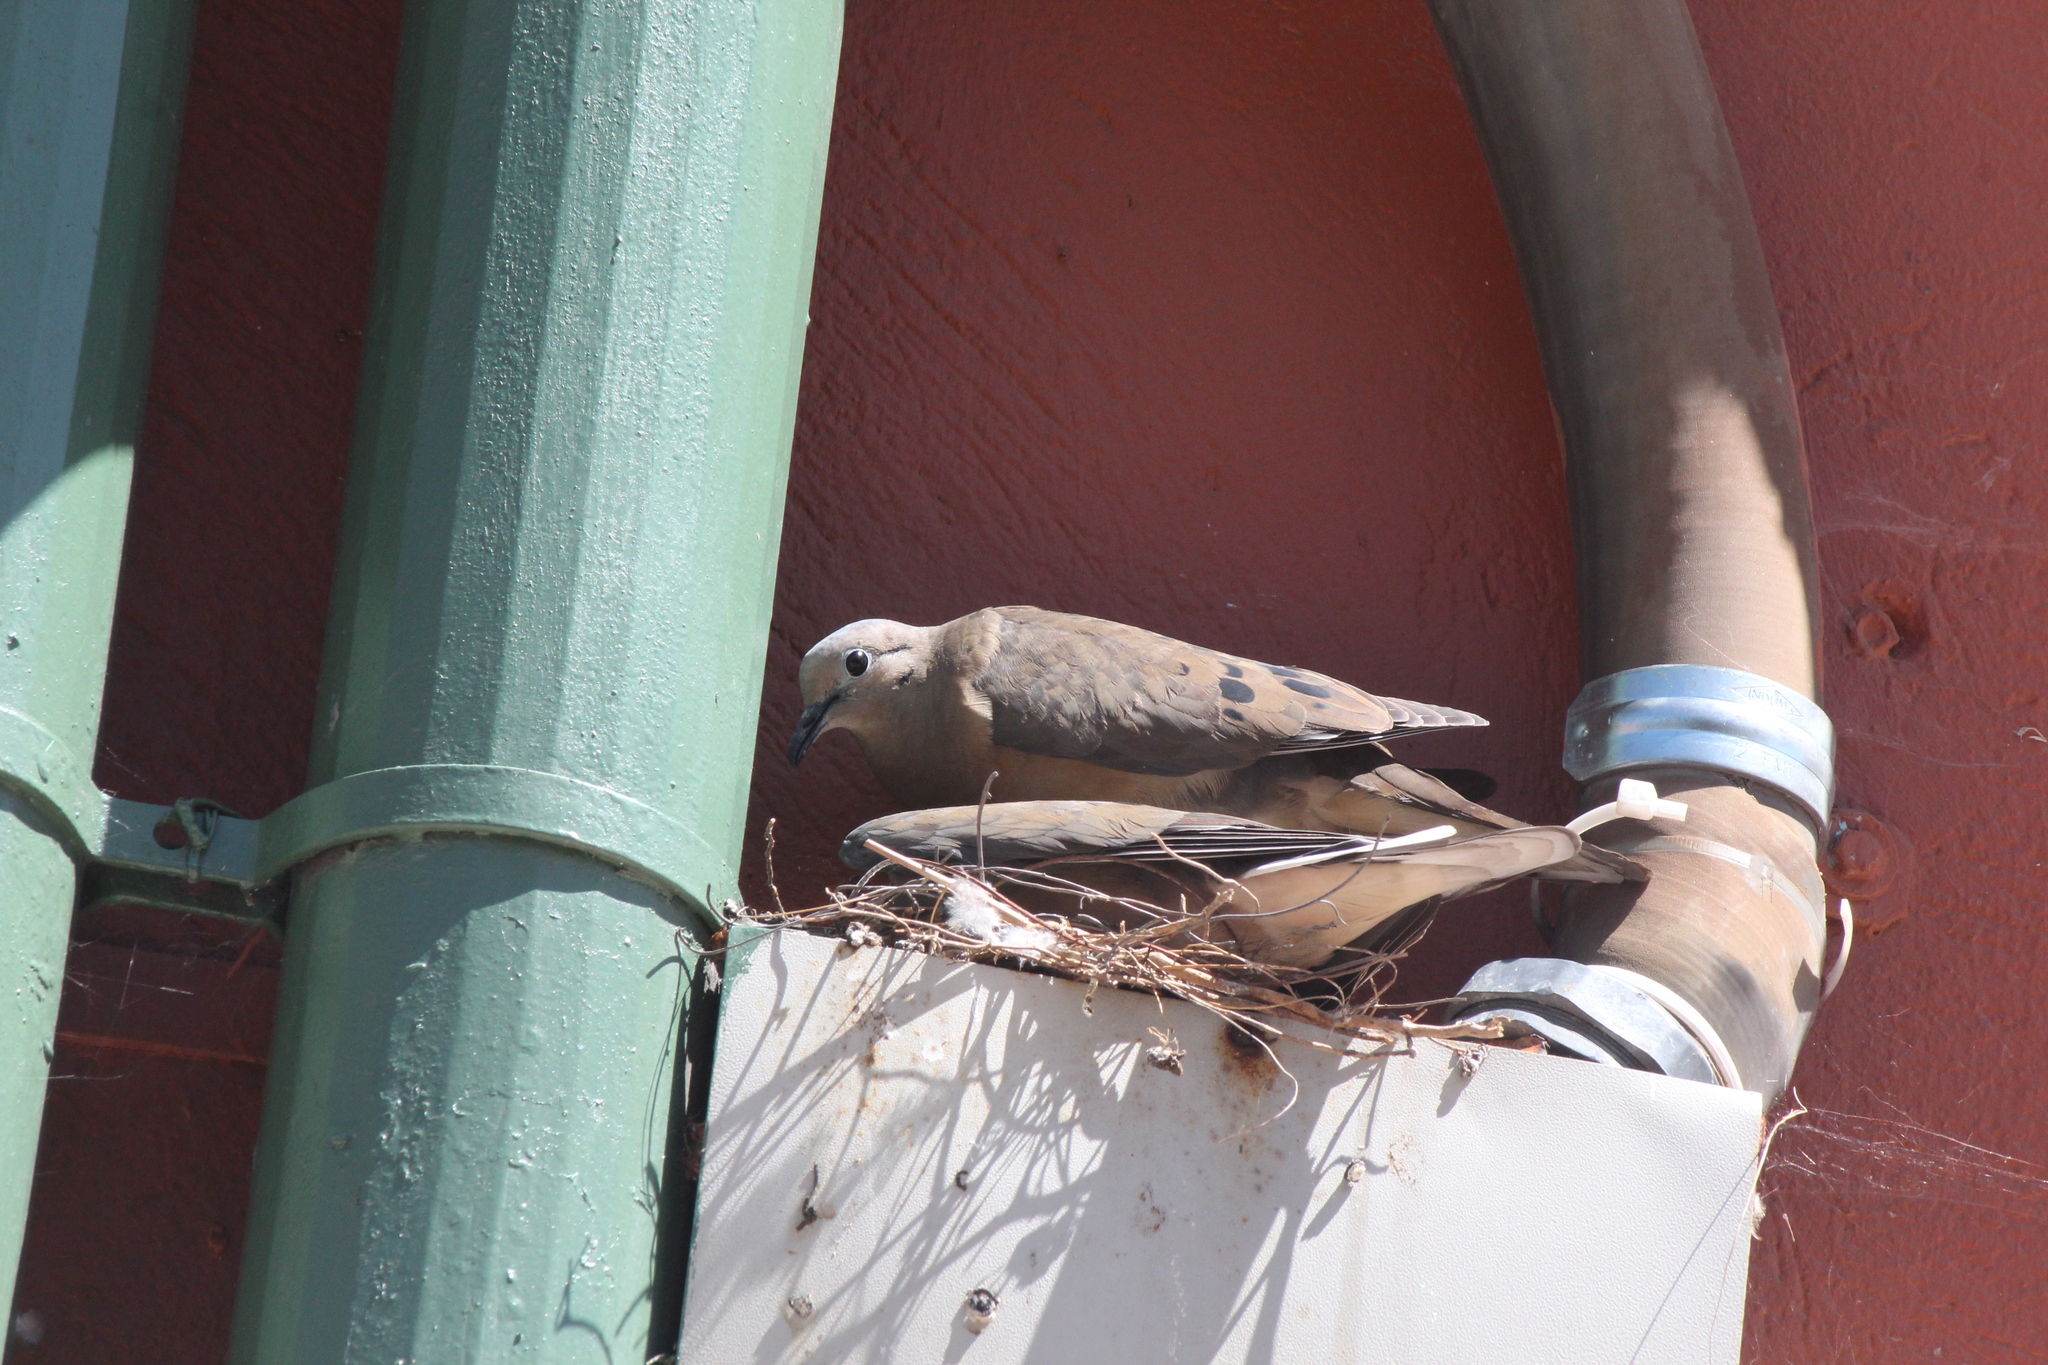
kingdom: Animalia
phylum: Chordata
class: Aves
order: Columbiformes
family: Columbidae
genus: Zenaida
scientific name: Zenaida auriculata
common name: Eared dove
